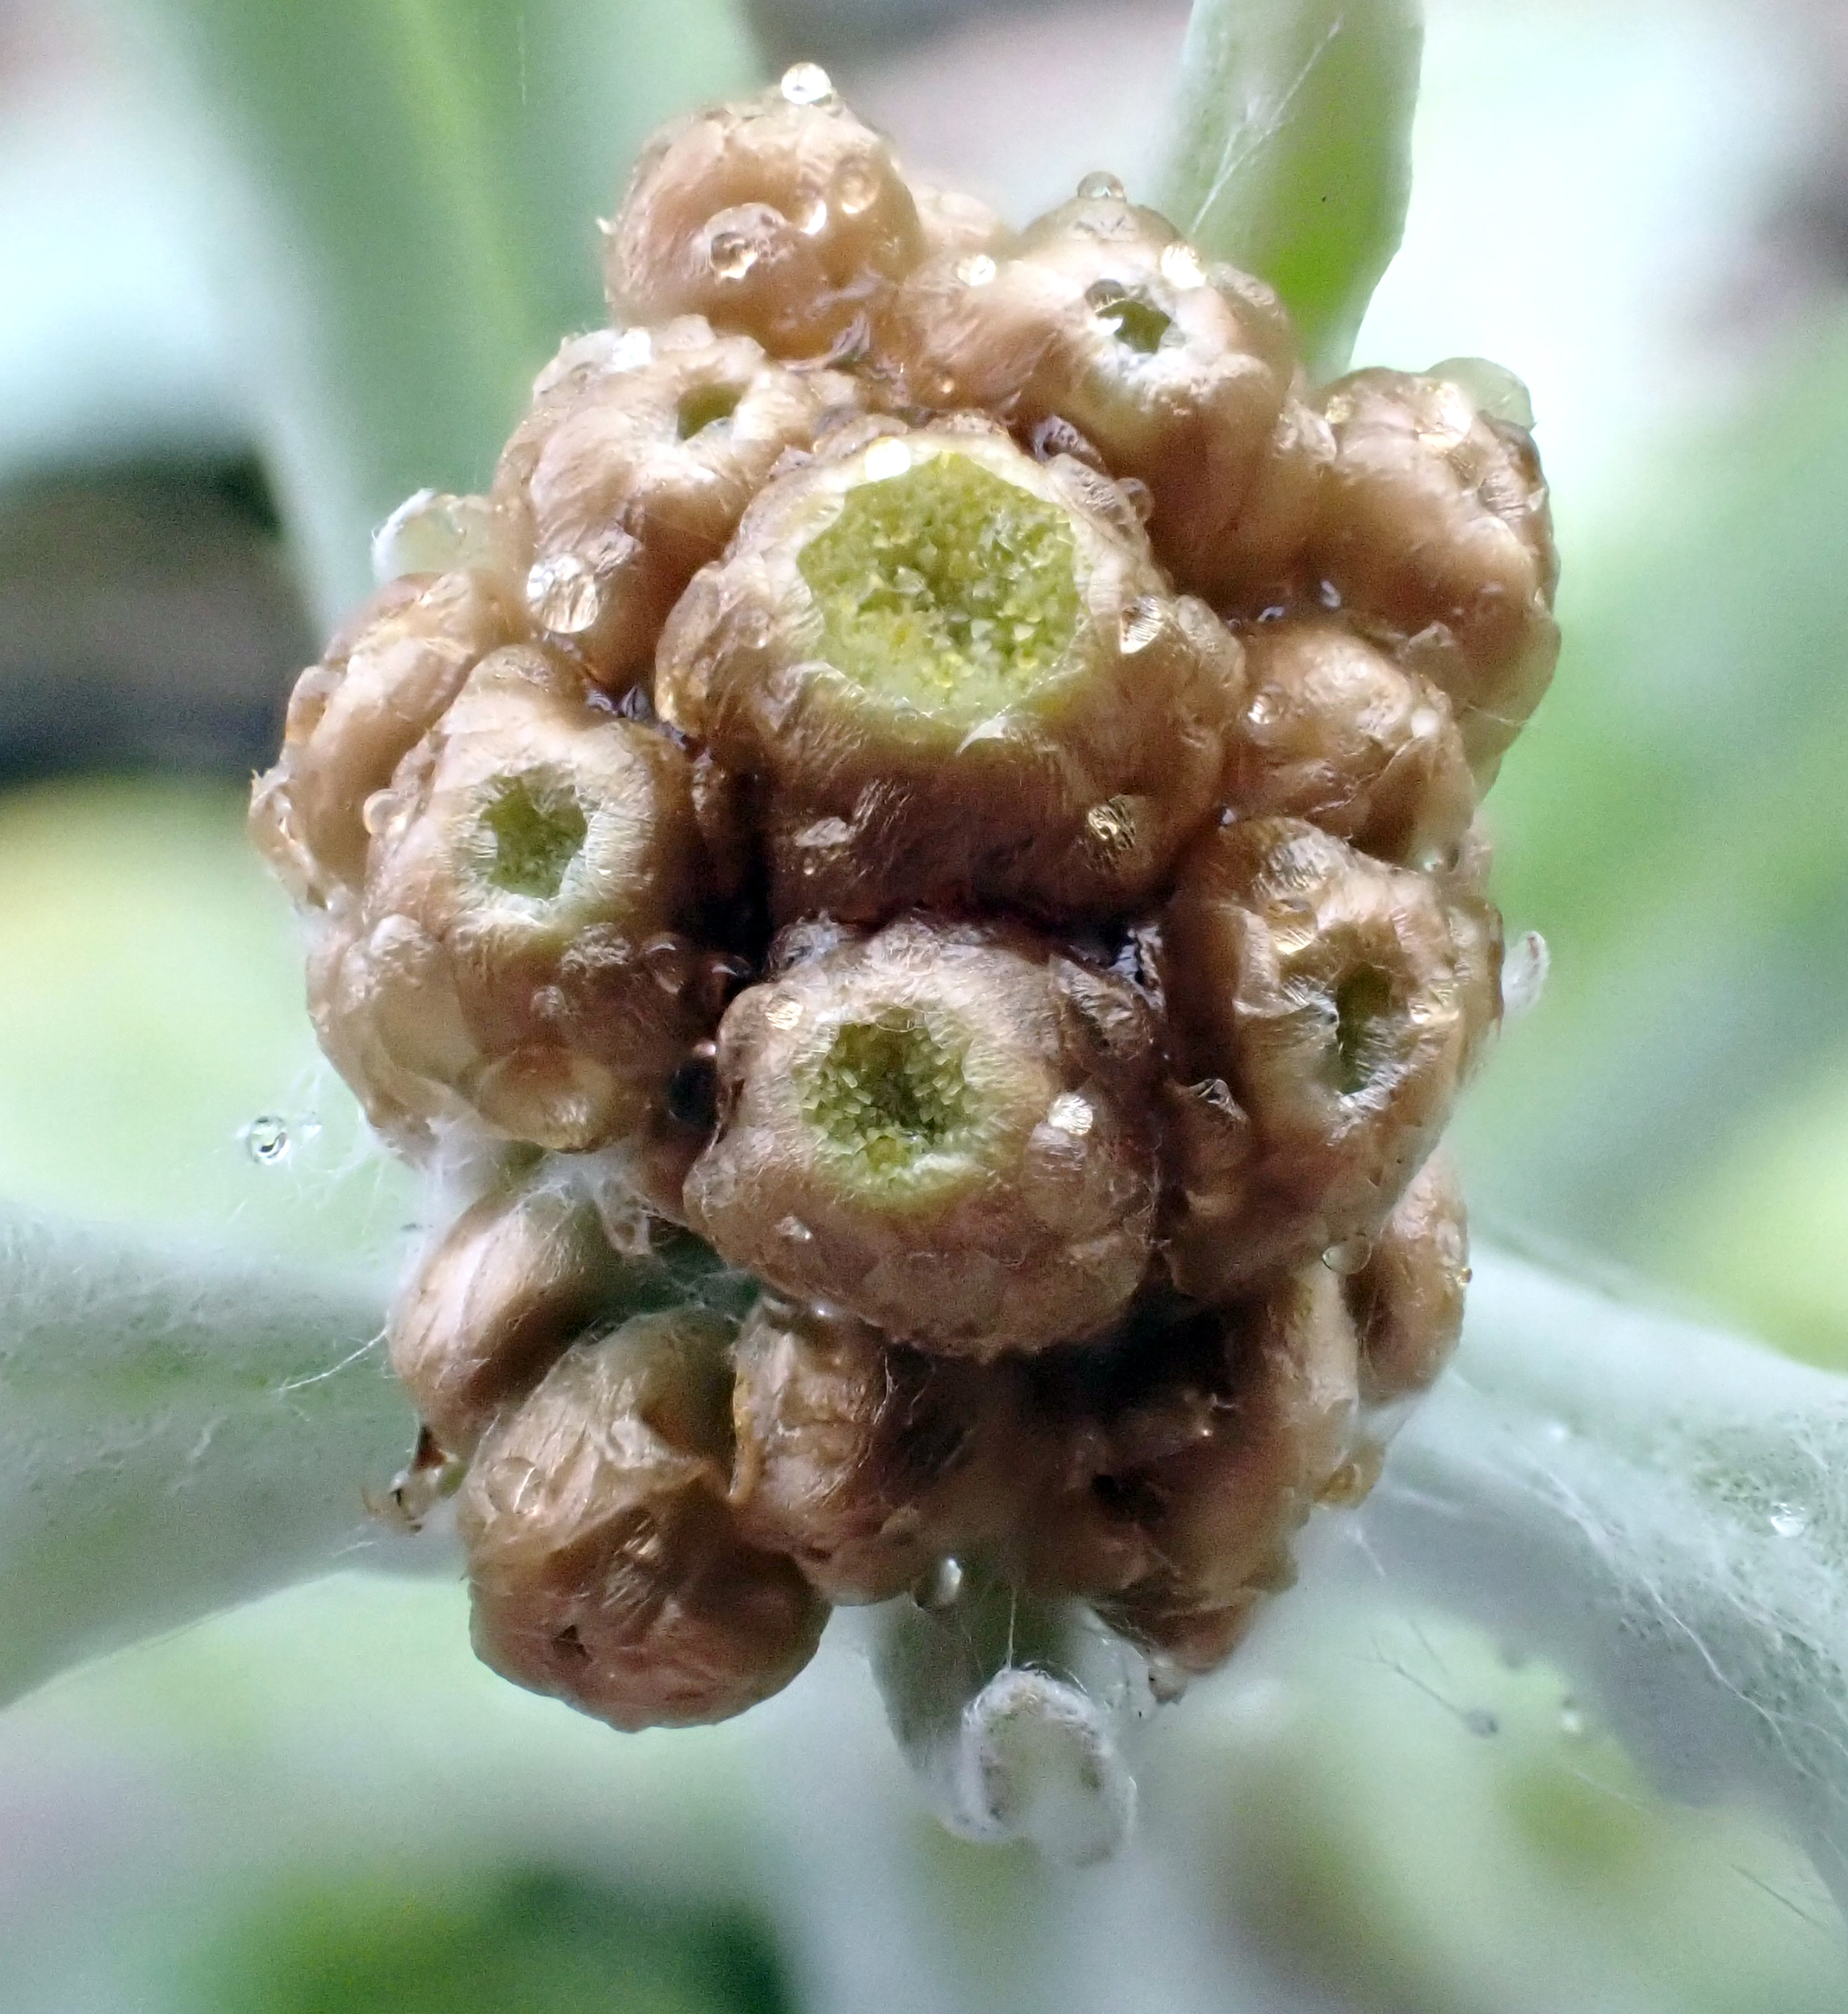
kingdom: Plantae
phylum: Tracheophyta
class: Magnoliopsida
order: Asterales
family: Asteraceae
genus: Pseudognaphalium
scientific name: Pseudognaphalium
